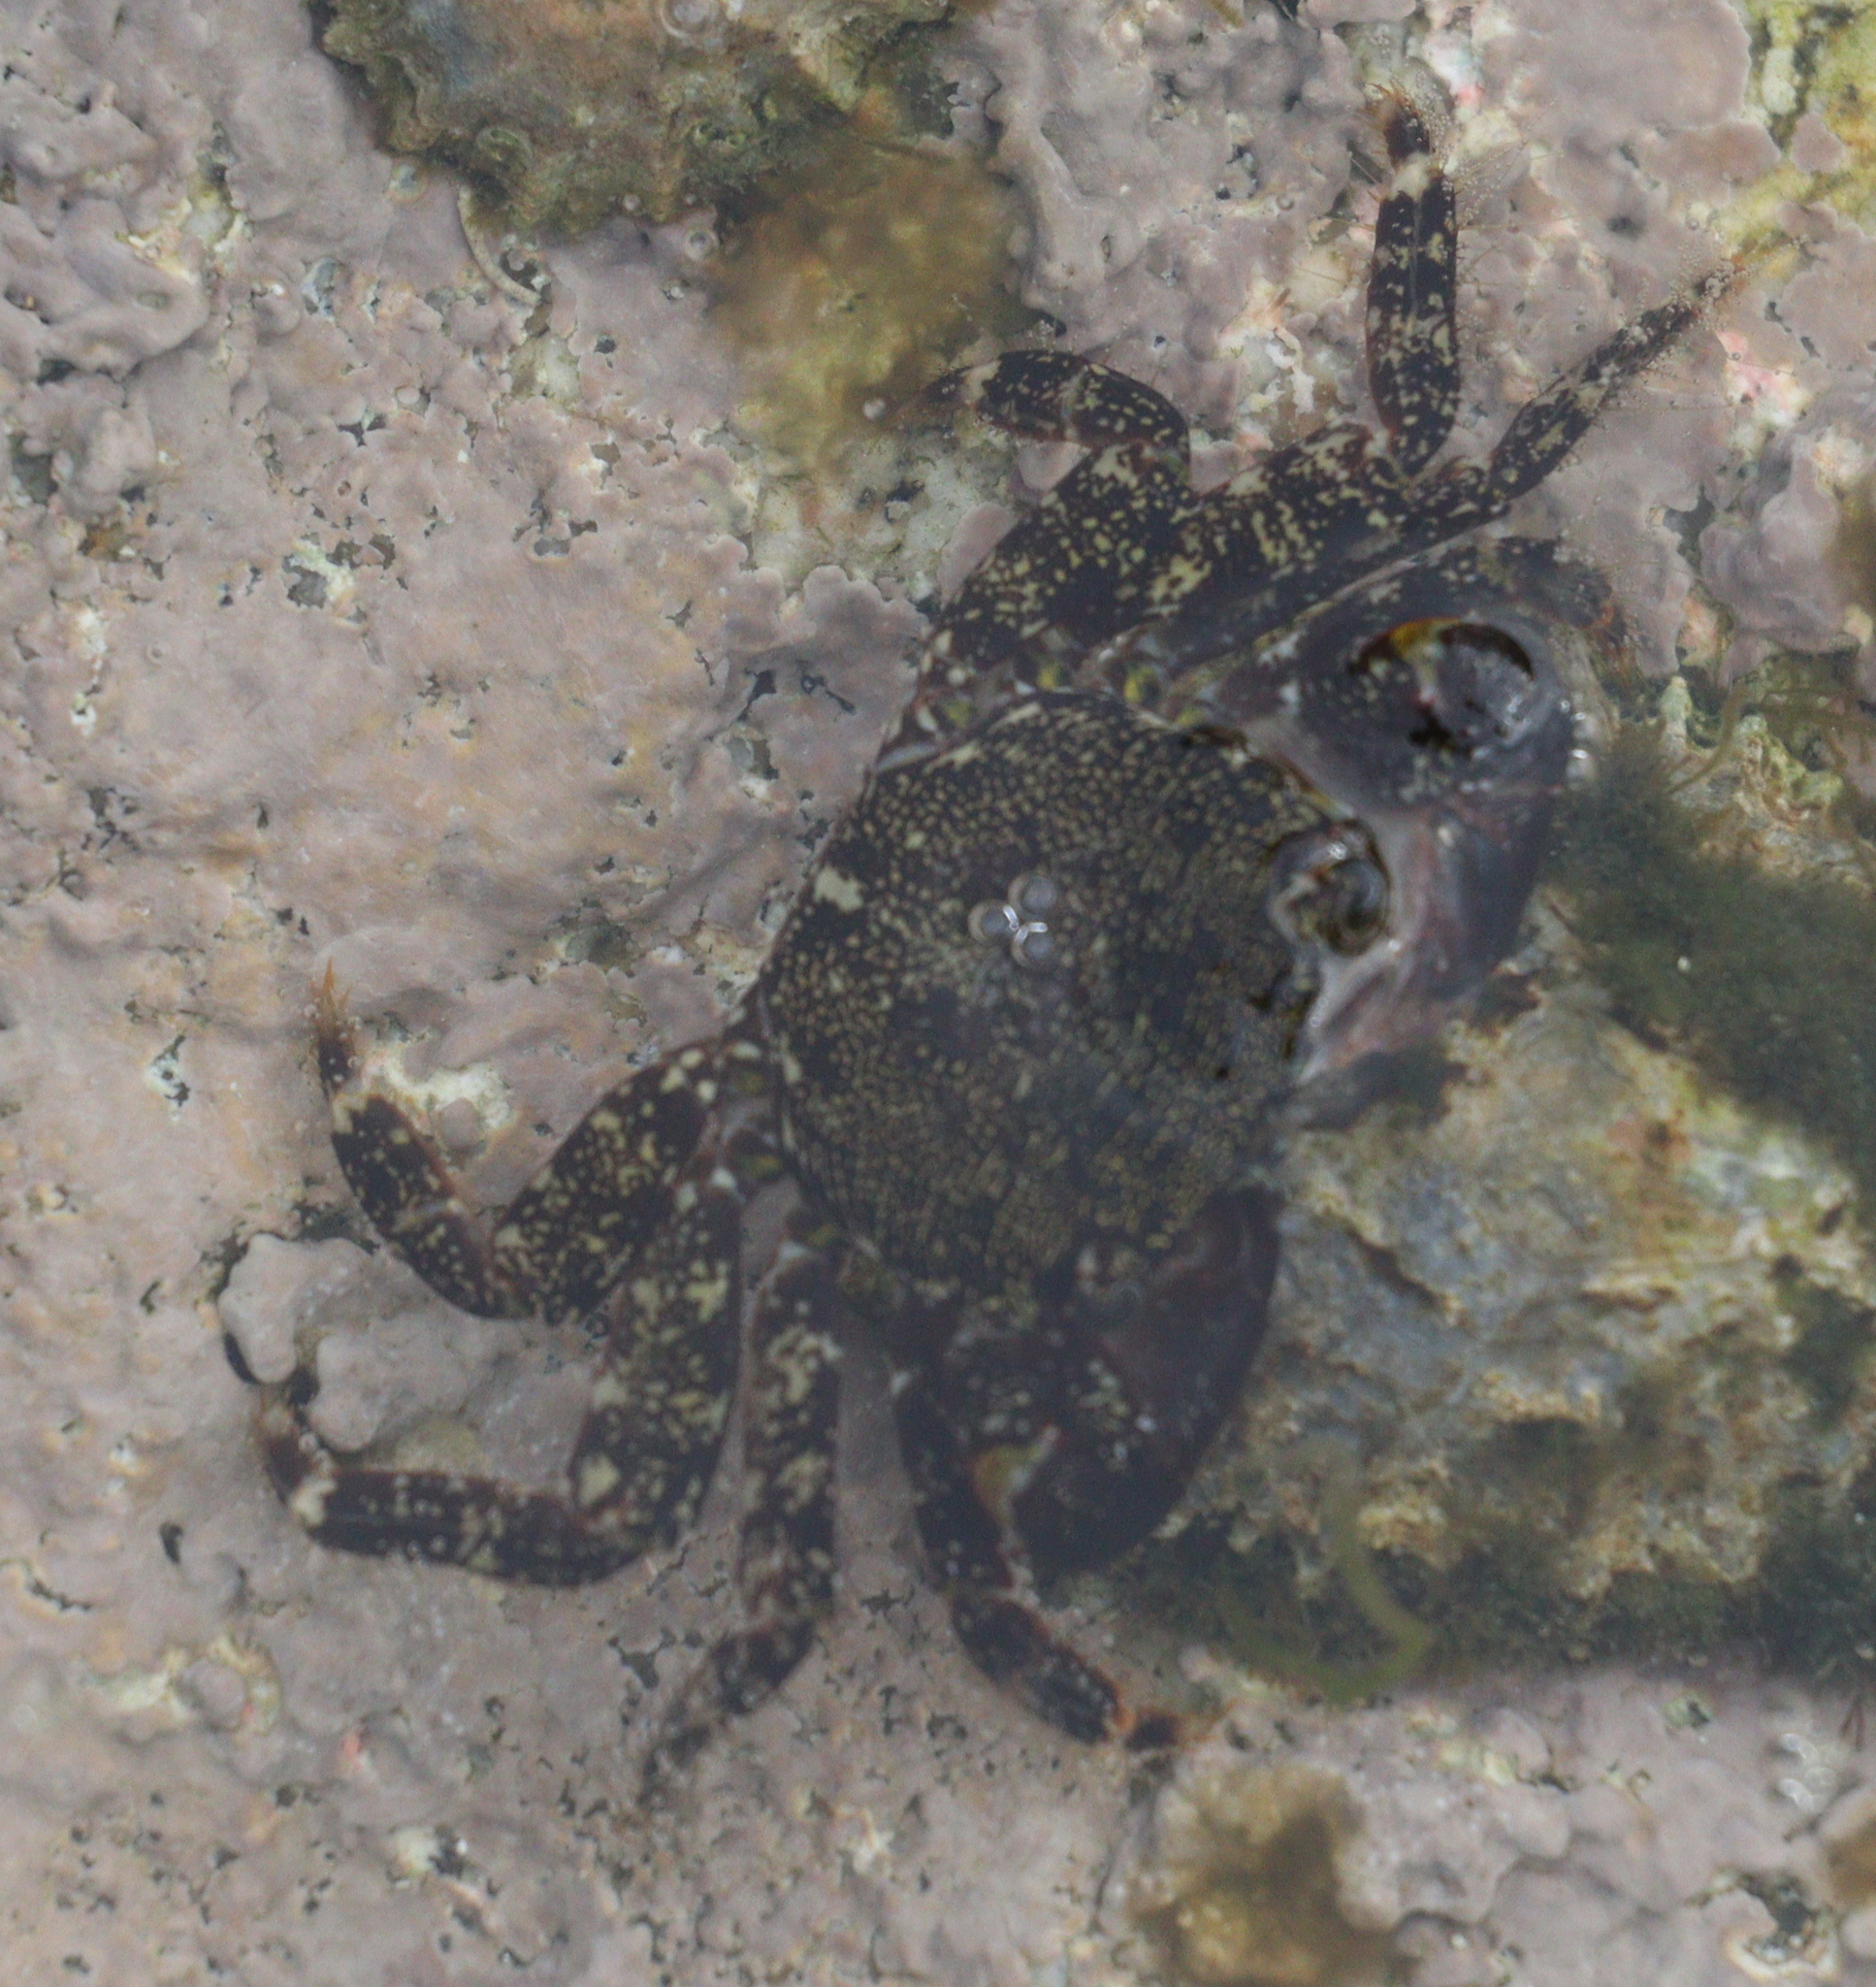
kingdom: Animalia
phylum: Arthropoda
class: Malacostraca
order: Decapoda
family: Grapsidae
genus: Pachygrapsus
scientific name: Pachygrapsus marmoratus
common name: Marbled rock crab
